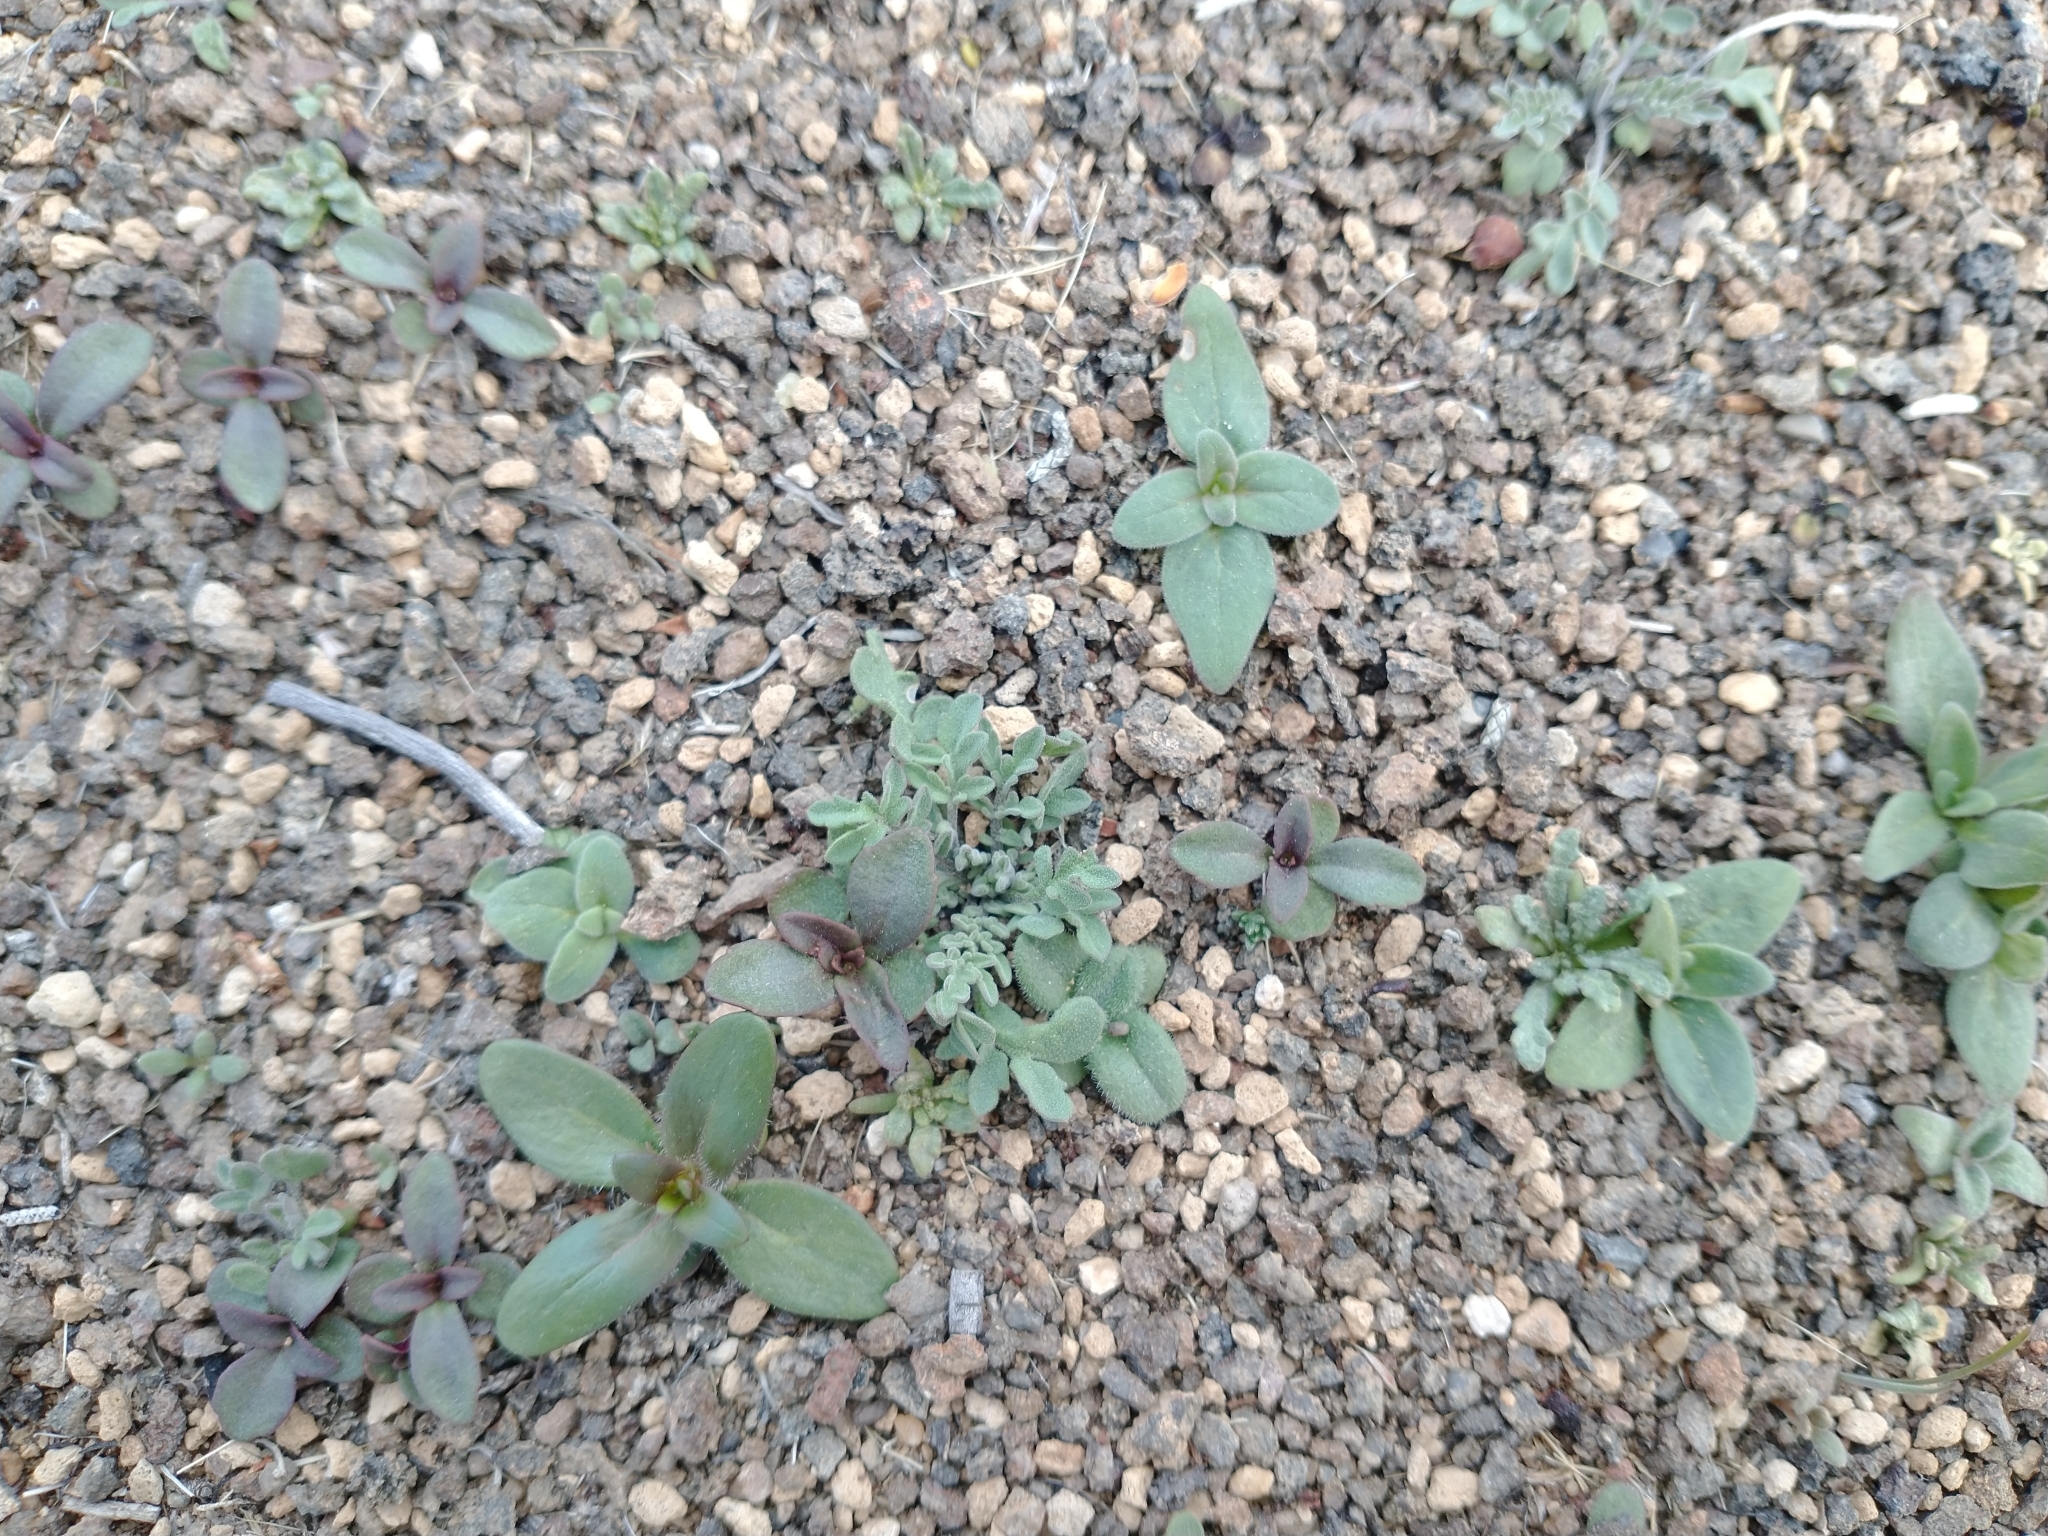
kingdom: Plantae
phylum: Tracheophyta
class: Magnoliopsida
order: Brassicales
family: Brassicaceae
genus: Descurainia
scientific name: Descurainia sophia
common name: Flixweed
